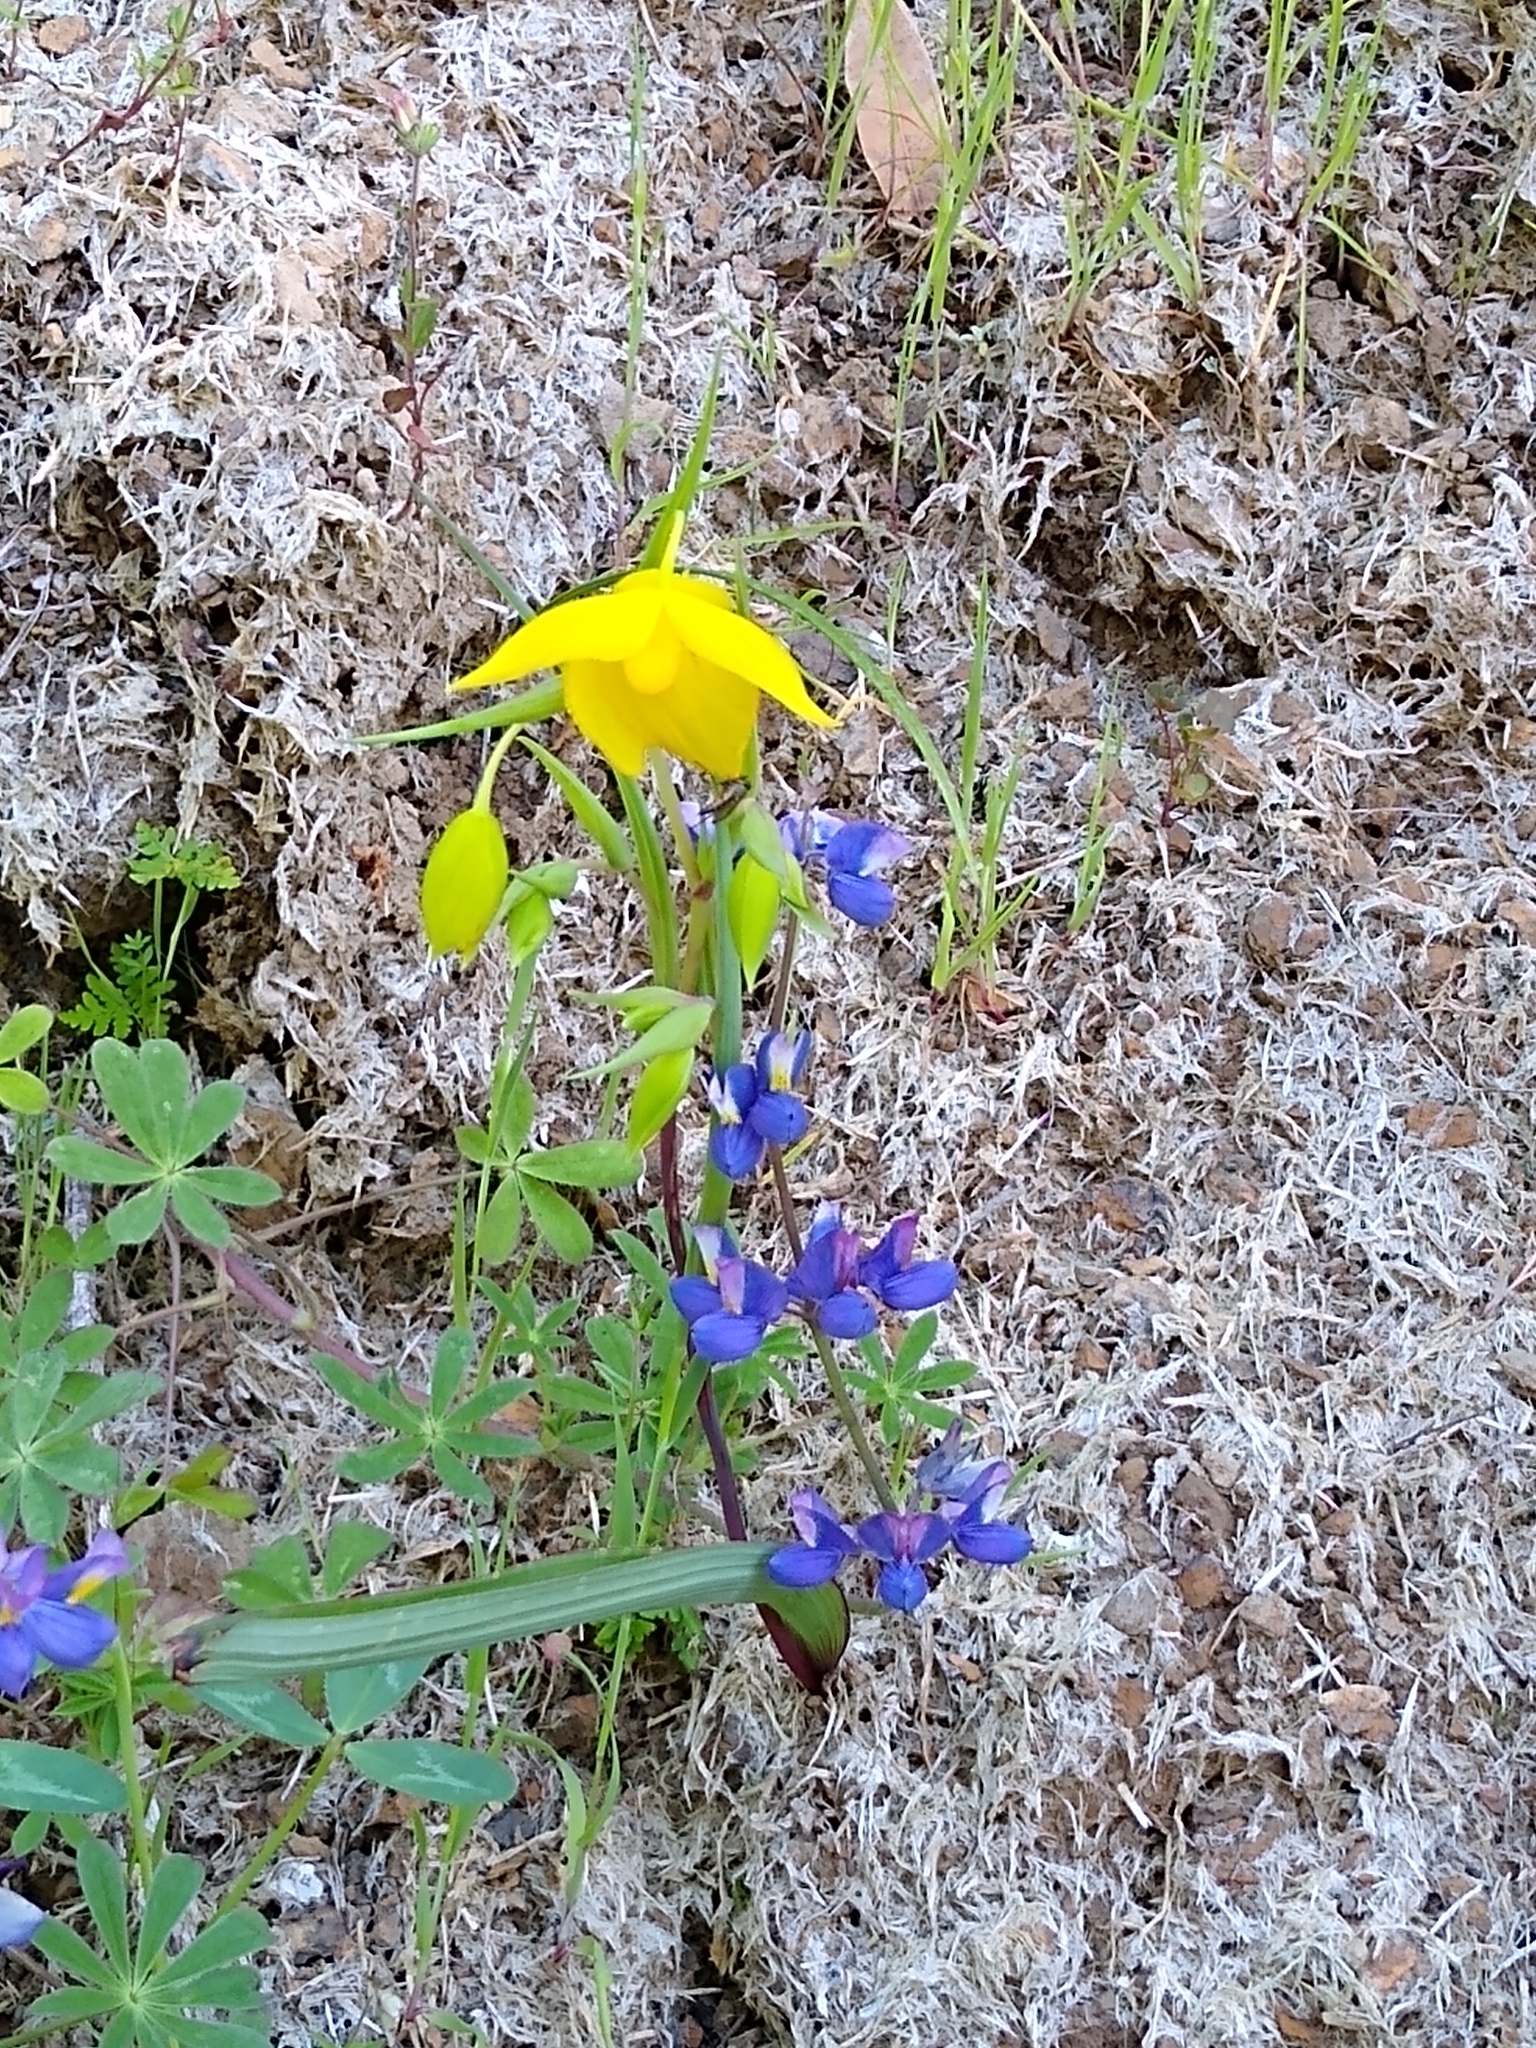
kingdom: Plantae
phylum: Tracheophyta
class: Liliopsida
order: Liliales
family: Liliaceae
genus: Calochortus
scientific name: Calochortus amabilis
